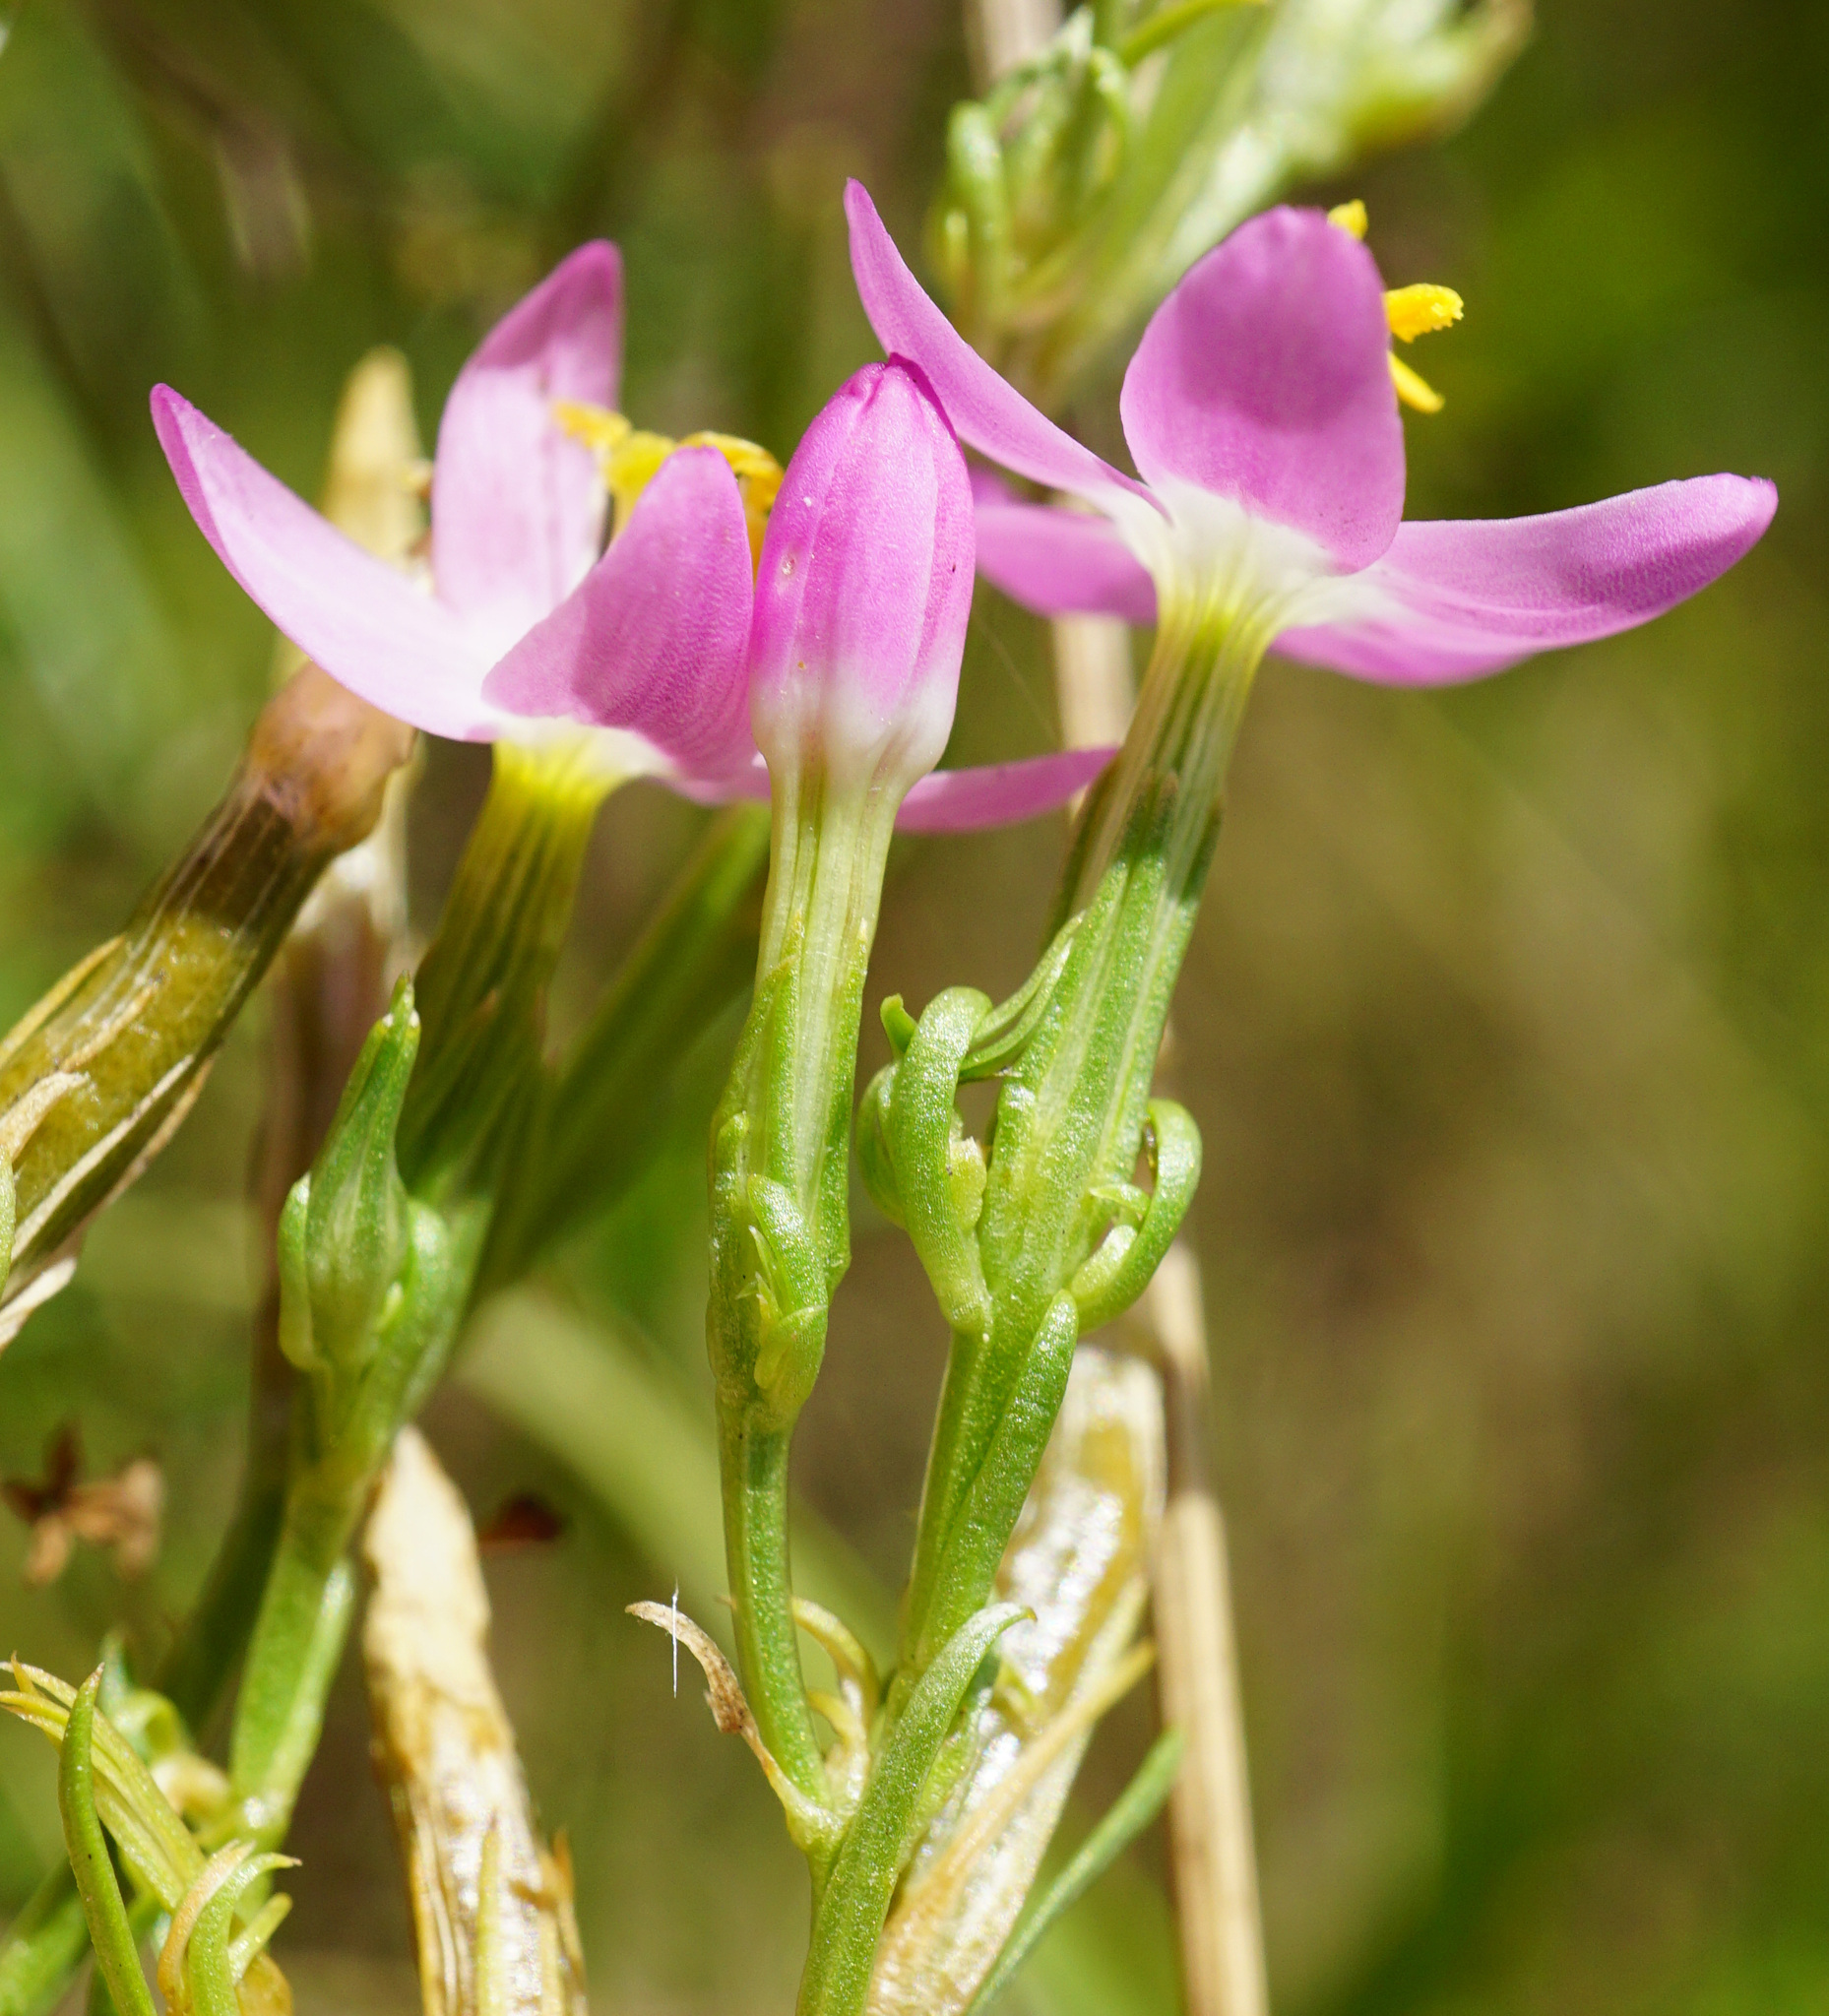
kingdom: Plantae
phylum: Tracheophyta
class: Magnoliopsida
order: Gentianales
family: Gentianaceae
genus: Centaurium
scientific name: Centaurium erythraea
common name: Common centaury
